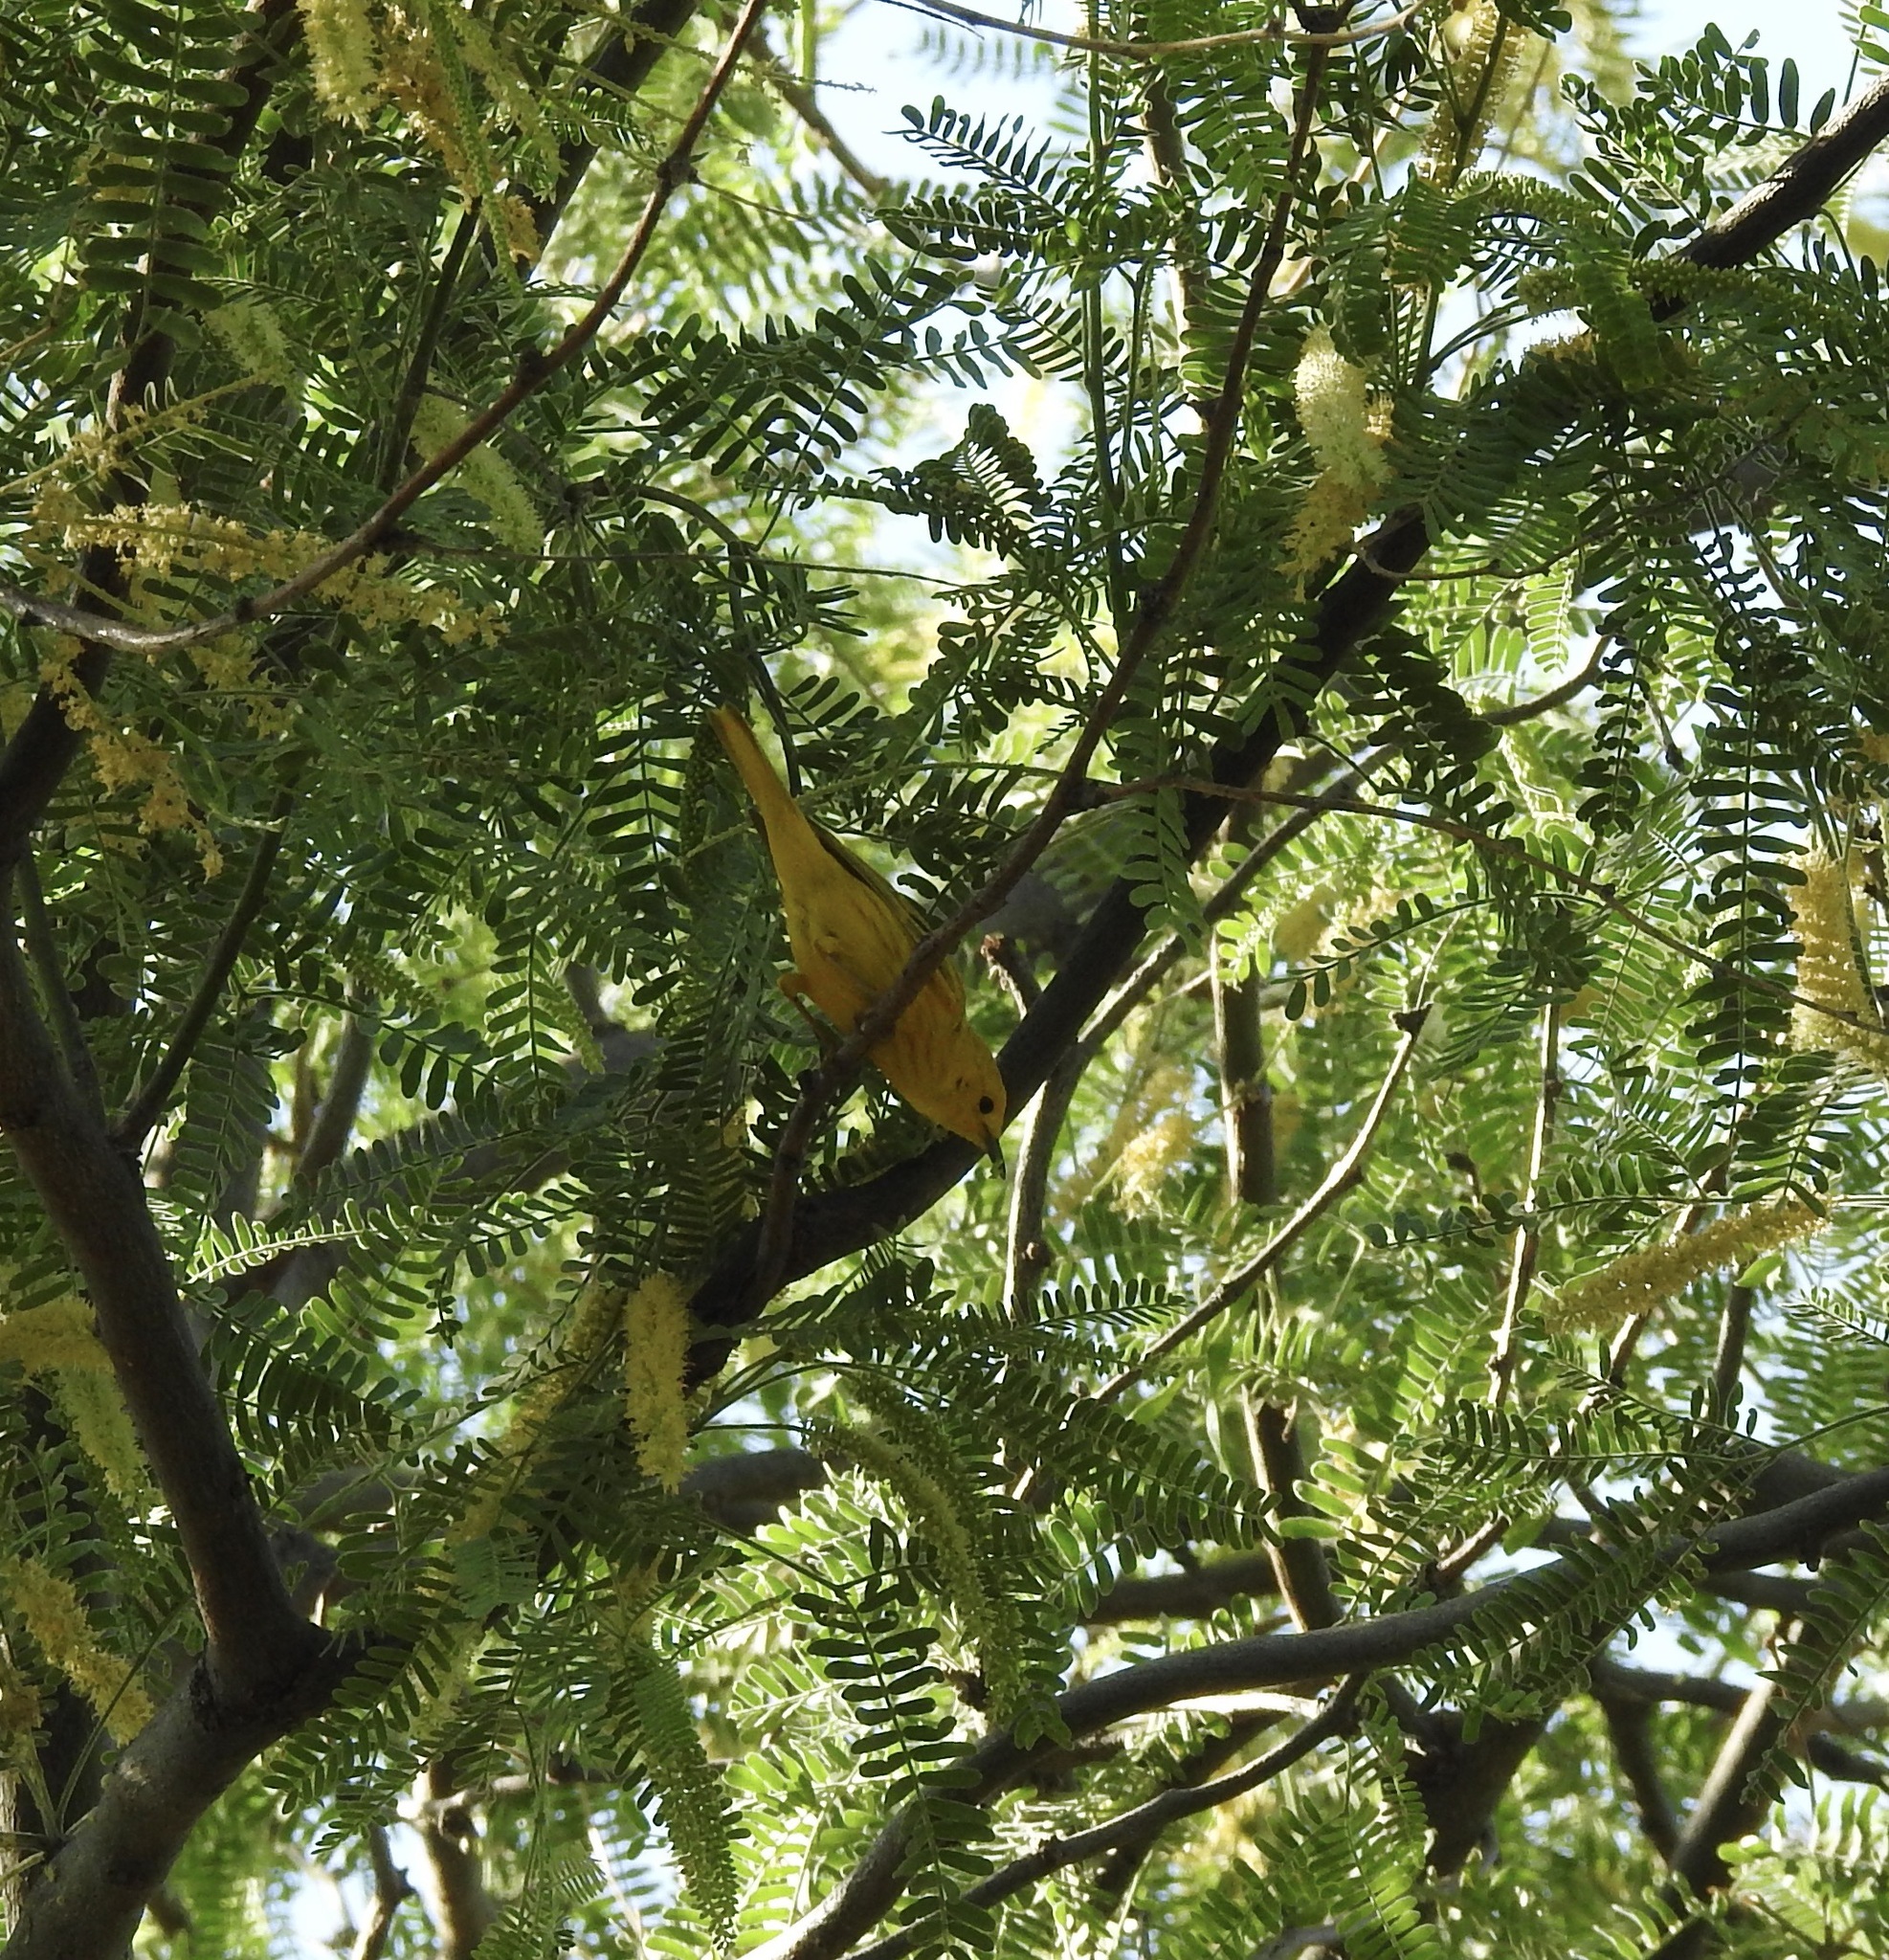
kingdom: Animalia
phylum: Chordata
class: Aves
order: Passeriformes
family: Parulidae
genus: Setophaga
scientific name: Setophaga petechia
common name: Yellow warbler
